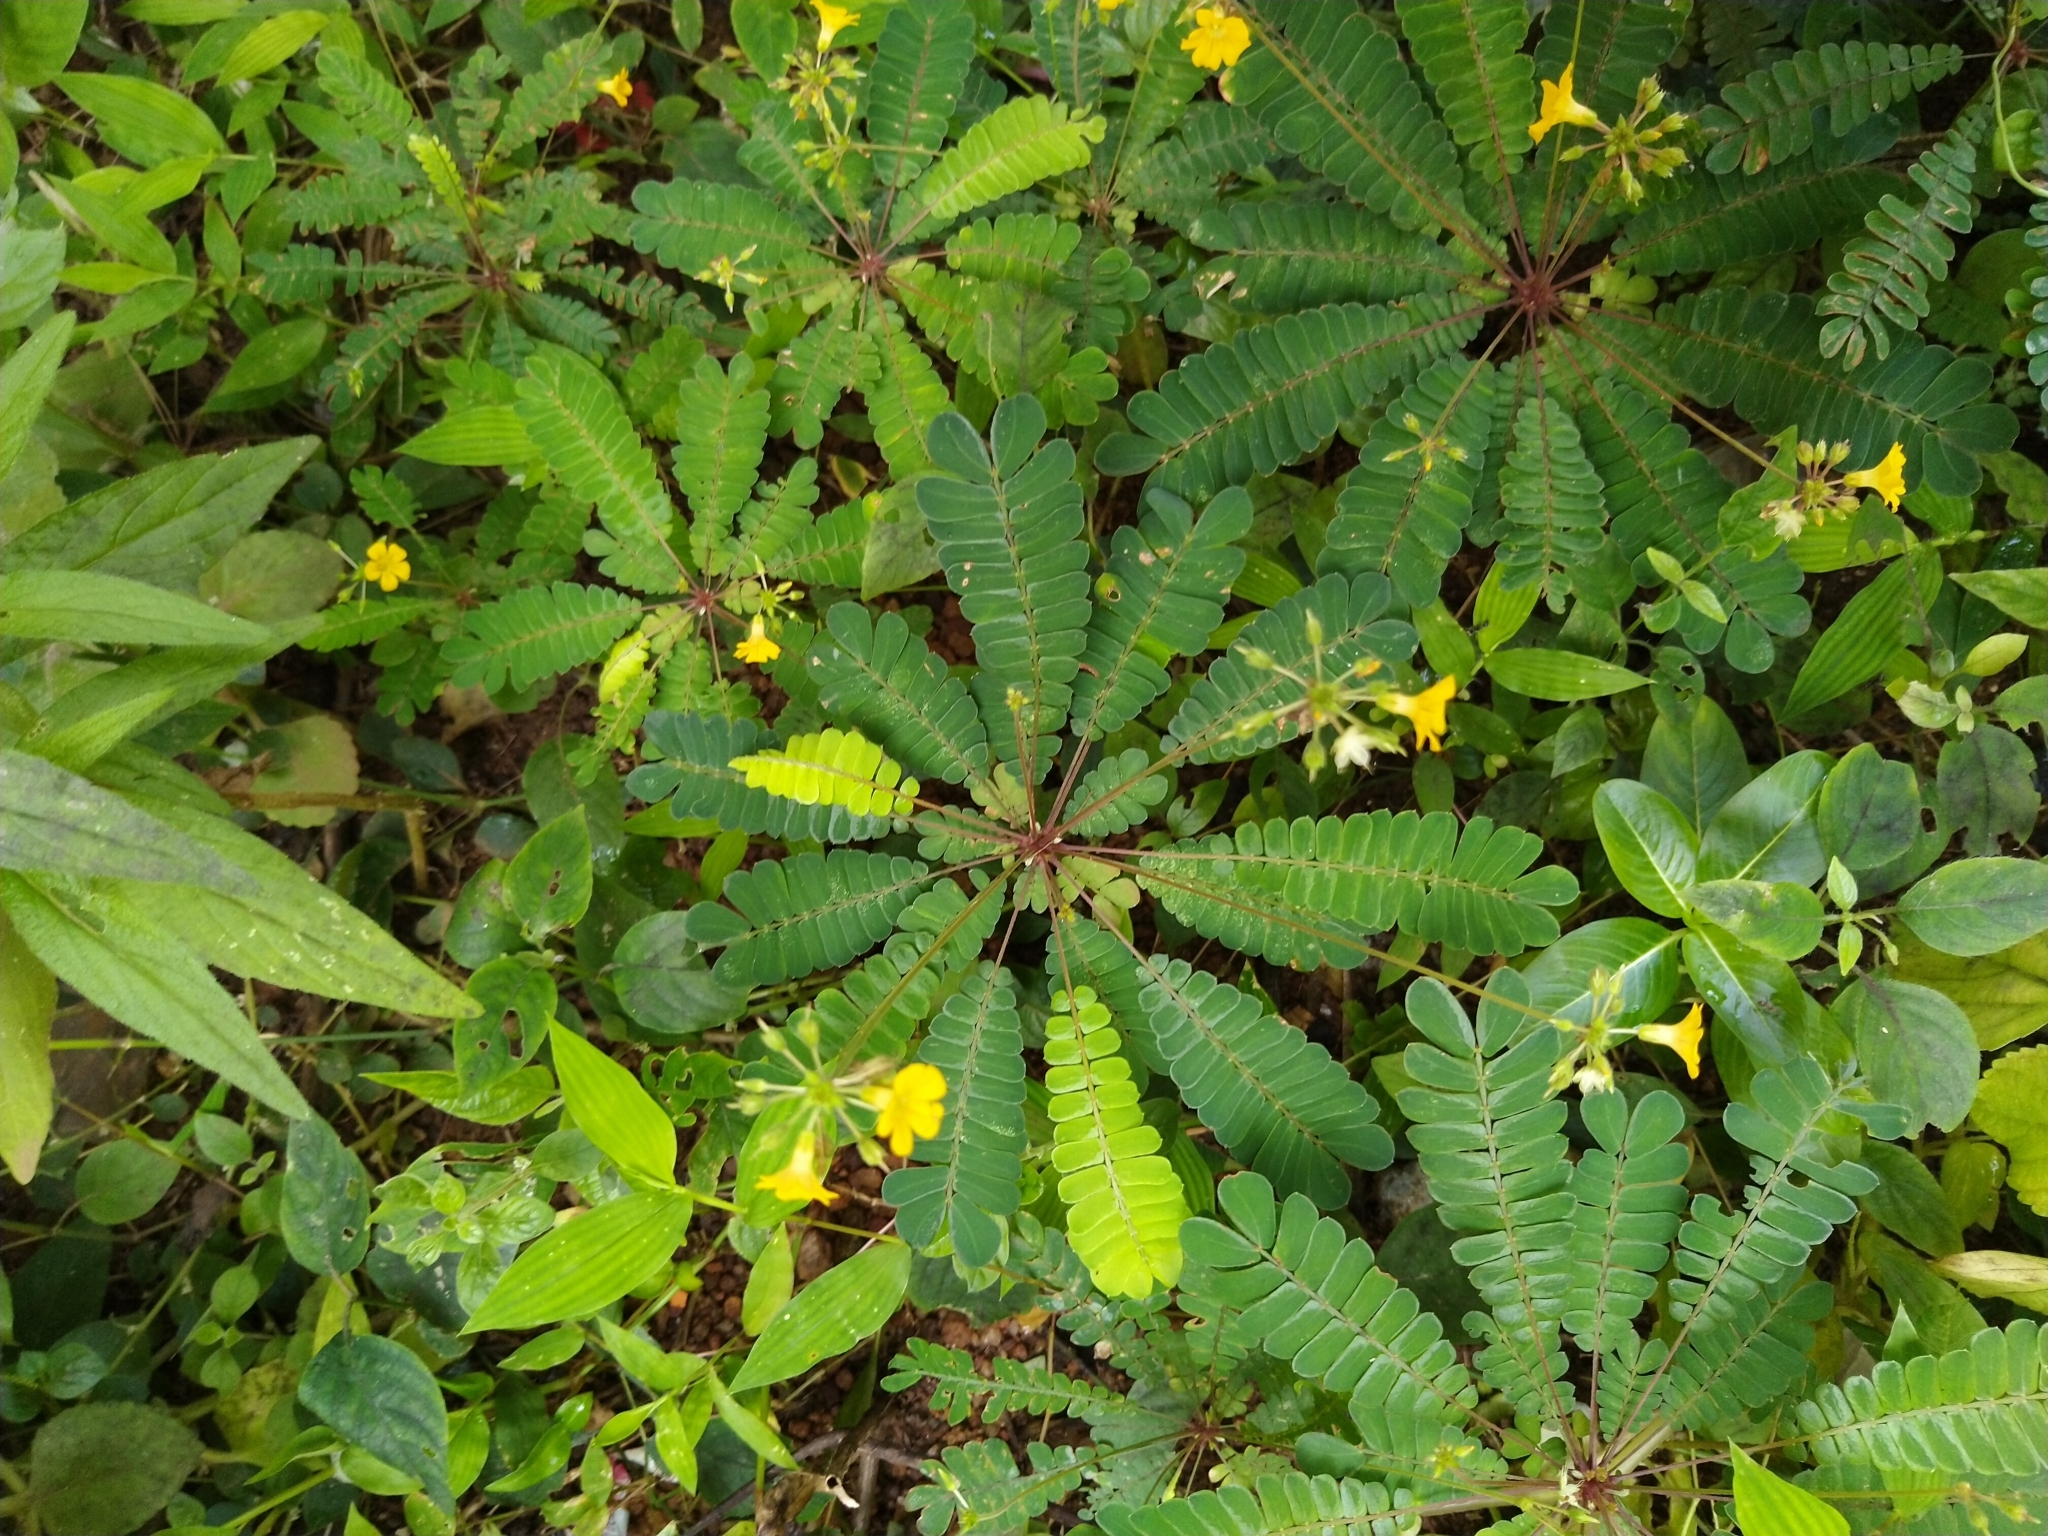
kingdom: Plantae
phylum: Tracheophyta
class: Magnoliopsida
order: Oxalidales
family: Oxalidaceae
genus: Biophytum
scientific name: Biophytum sensitivum
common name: Lifeplant
